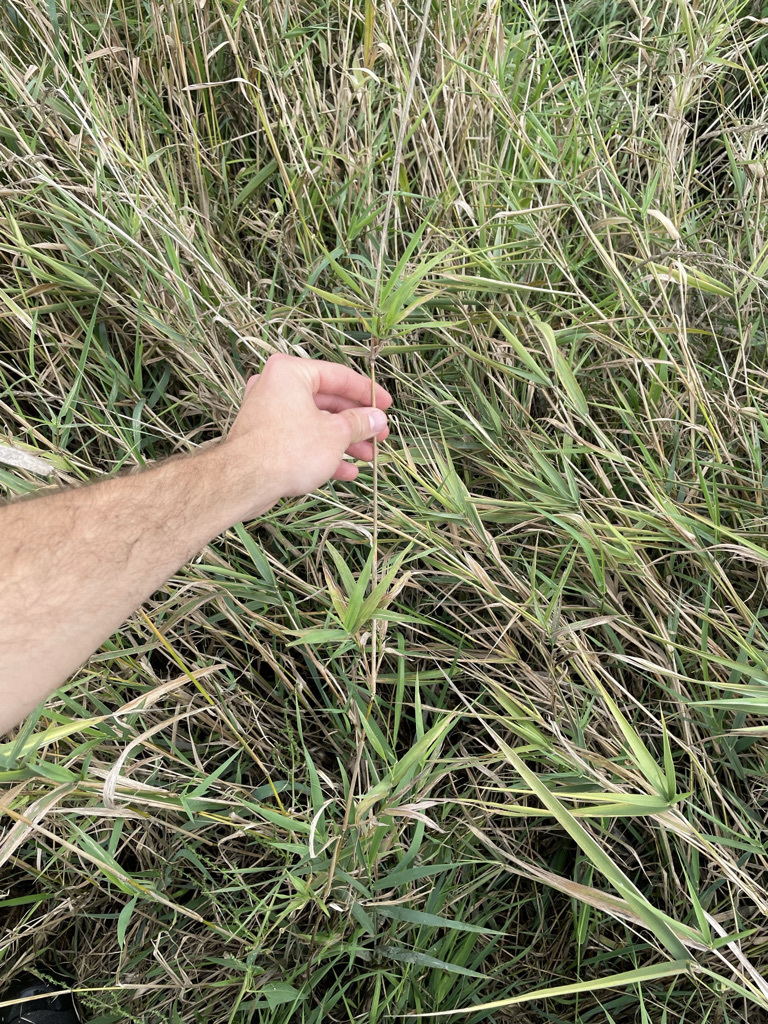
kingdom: Plantae
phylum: Tracheophyta
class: Liliopsida
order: Poales
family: Poaceae
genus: Phalaris
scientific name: Phalaris arundinacea
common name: Reed canary-grass
